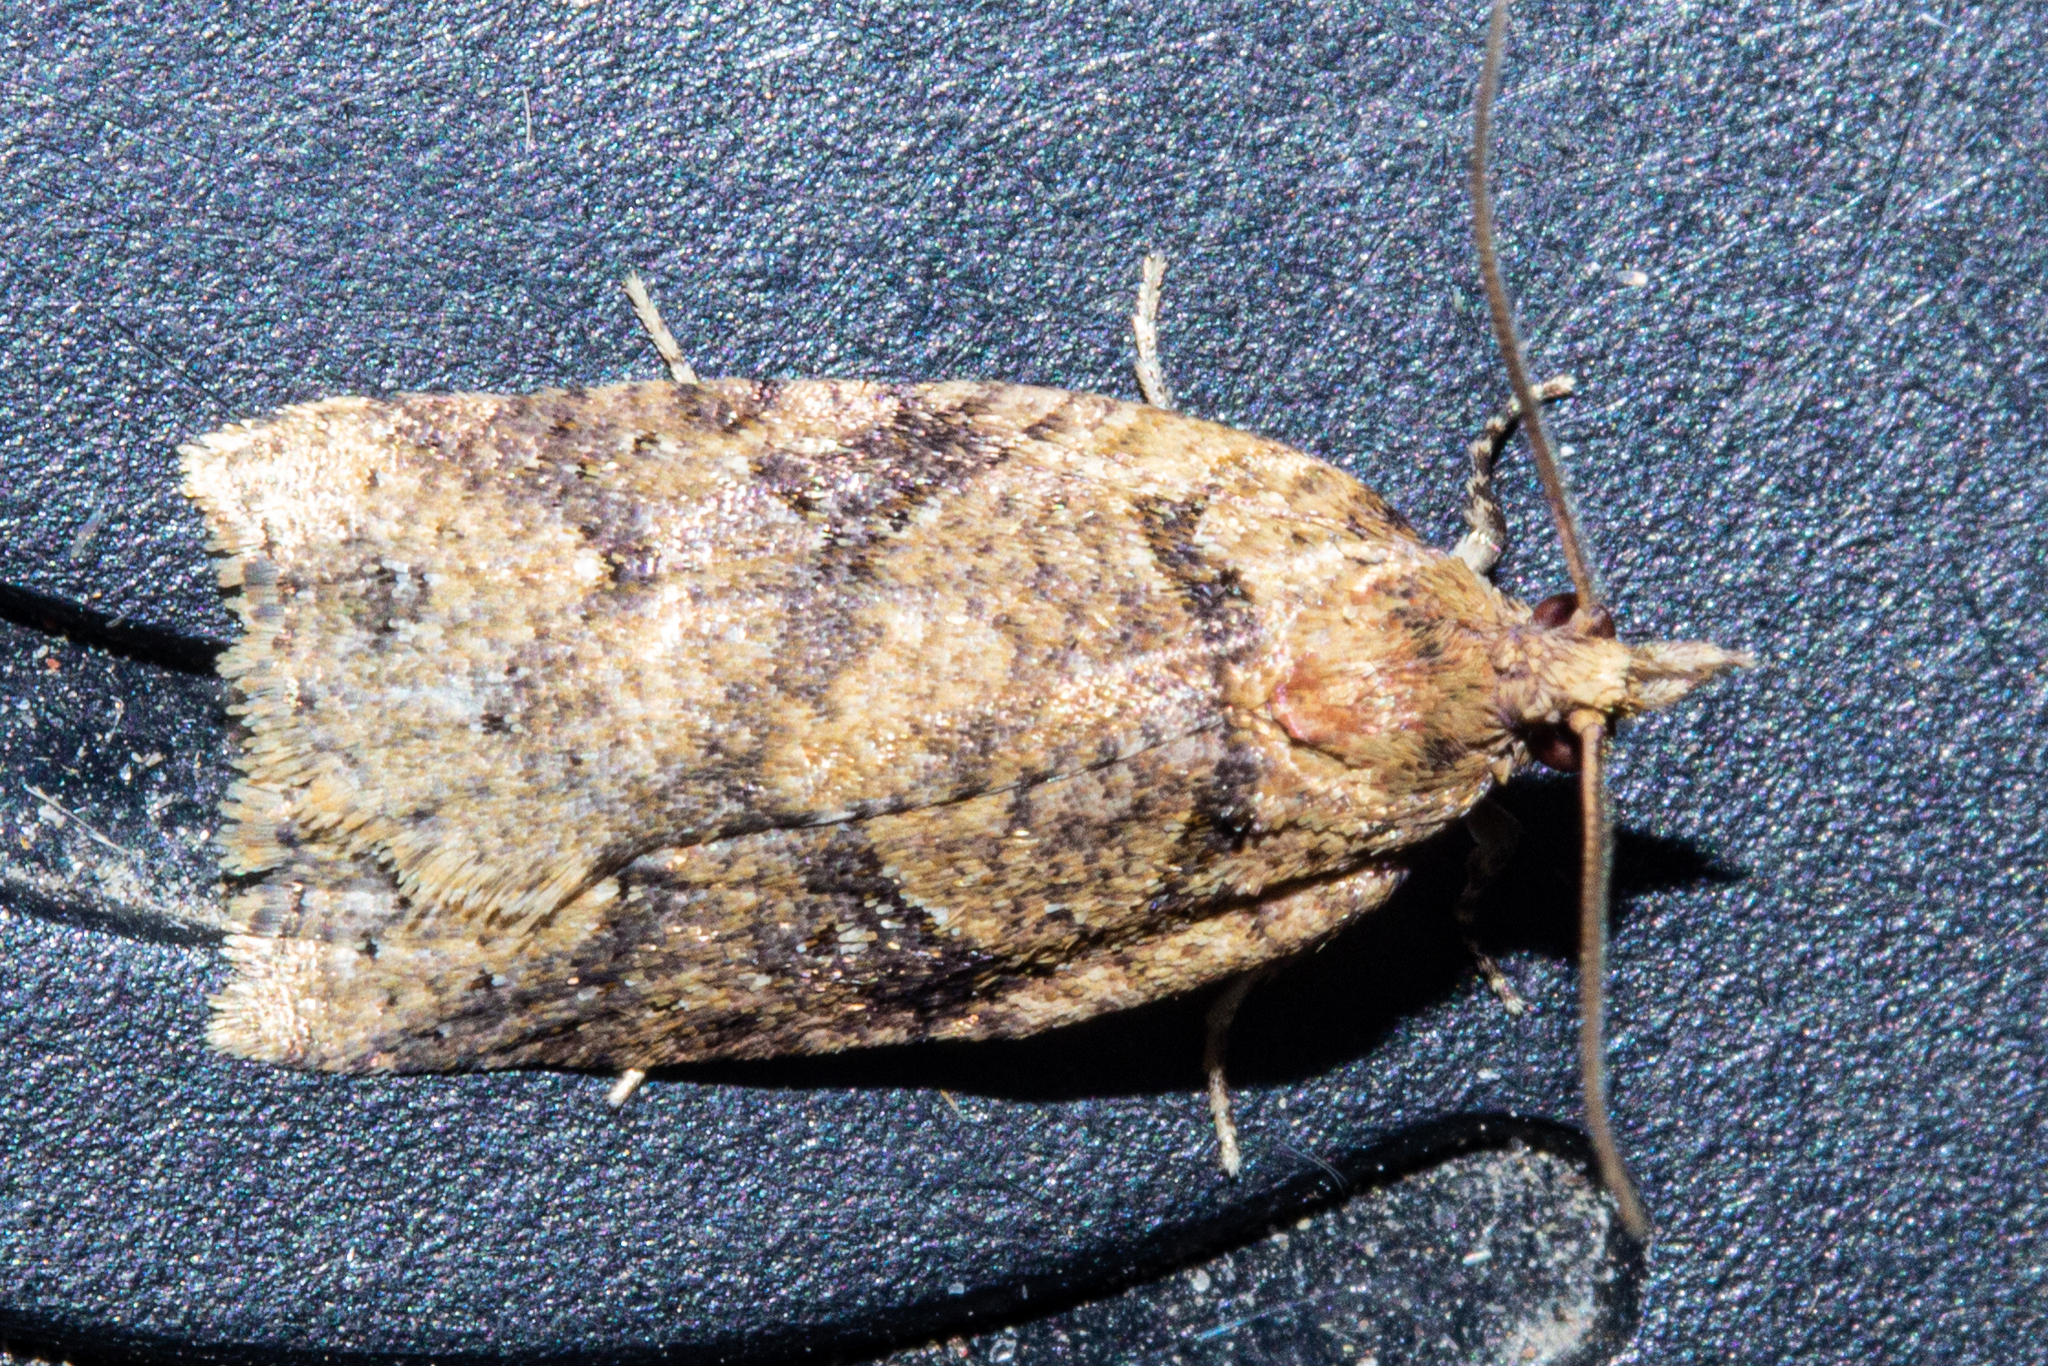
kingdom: Animalia
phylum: Arthropoda
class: Insecta
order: Lepidoptera
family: Tortricidae
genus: Ctenopseustis
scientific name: Ctenopseustis obliquana
